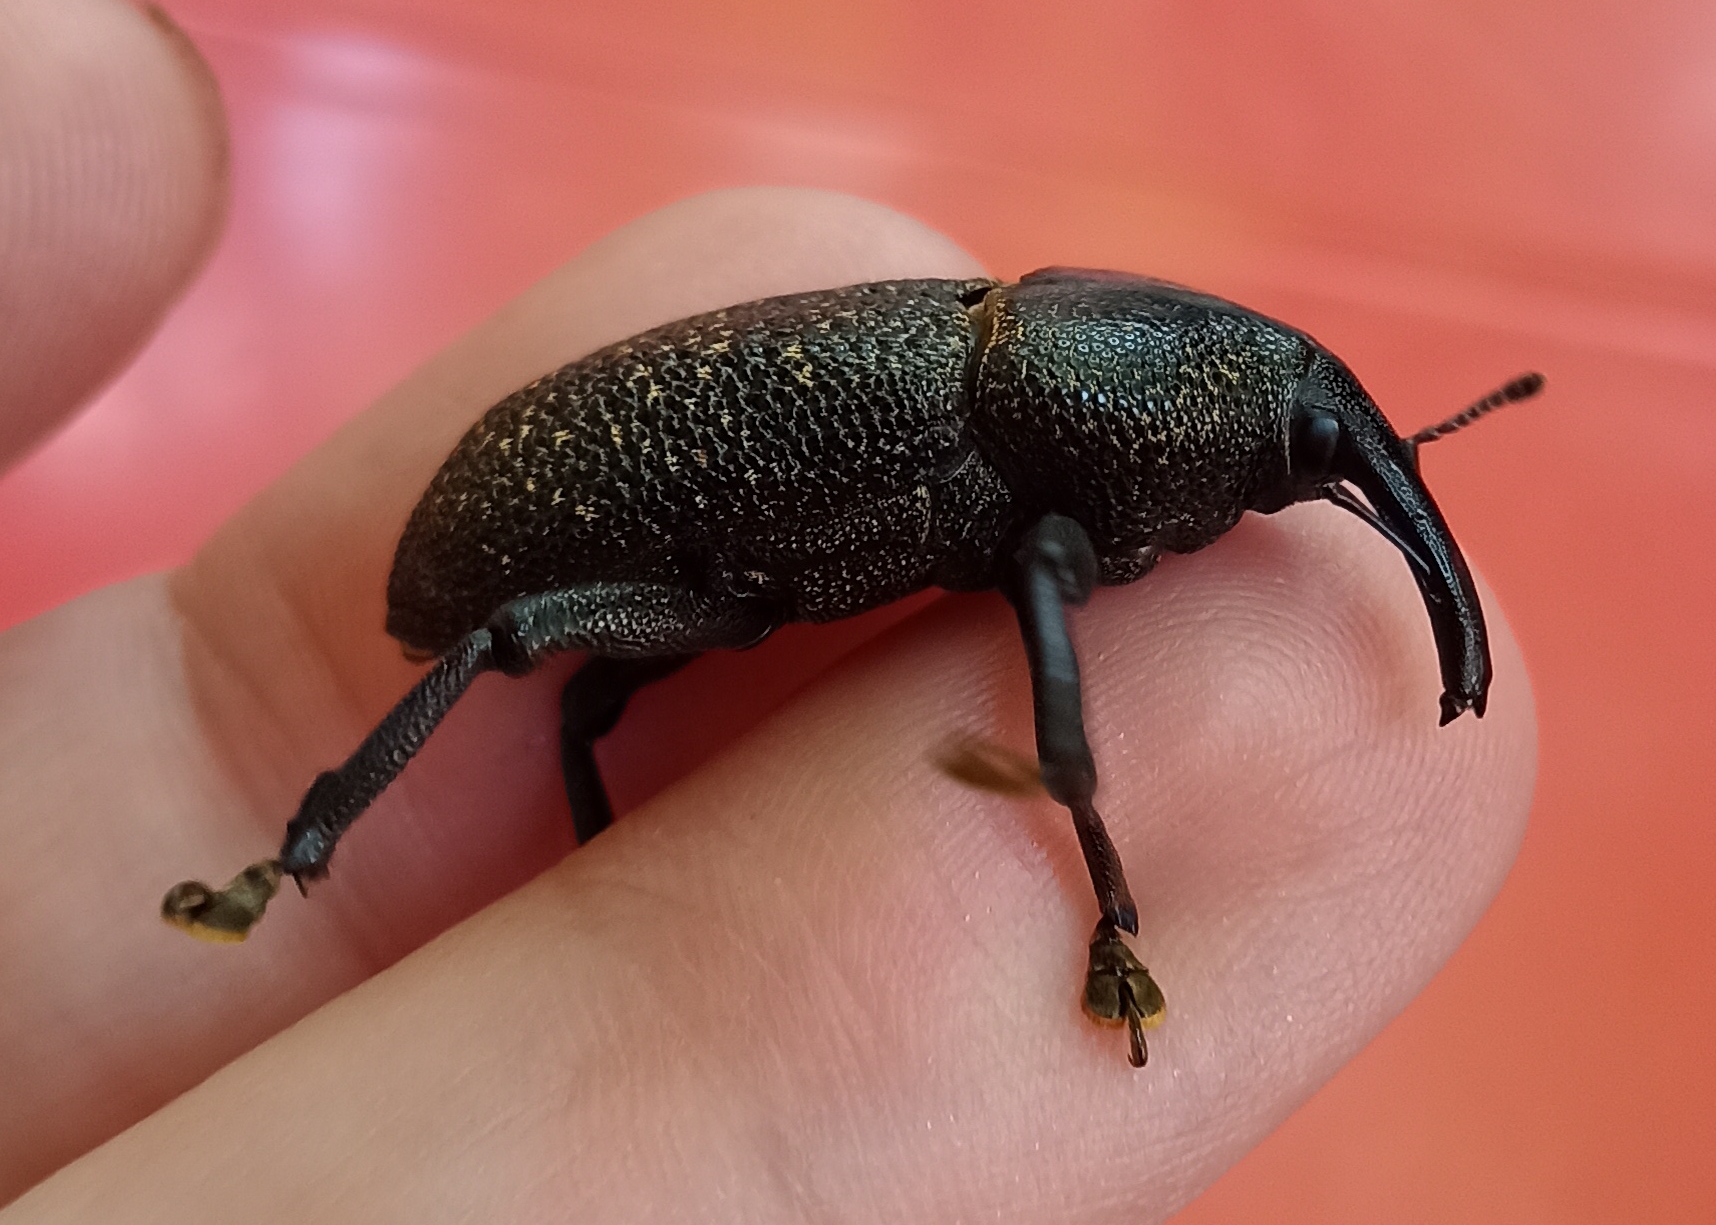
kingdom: Animalia
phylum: Arthropoda
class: Insecta
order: Coleoptera
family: Curculionidae
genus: Homalinotus
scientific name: Homalinotus coriaceus
